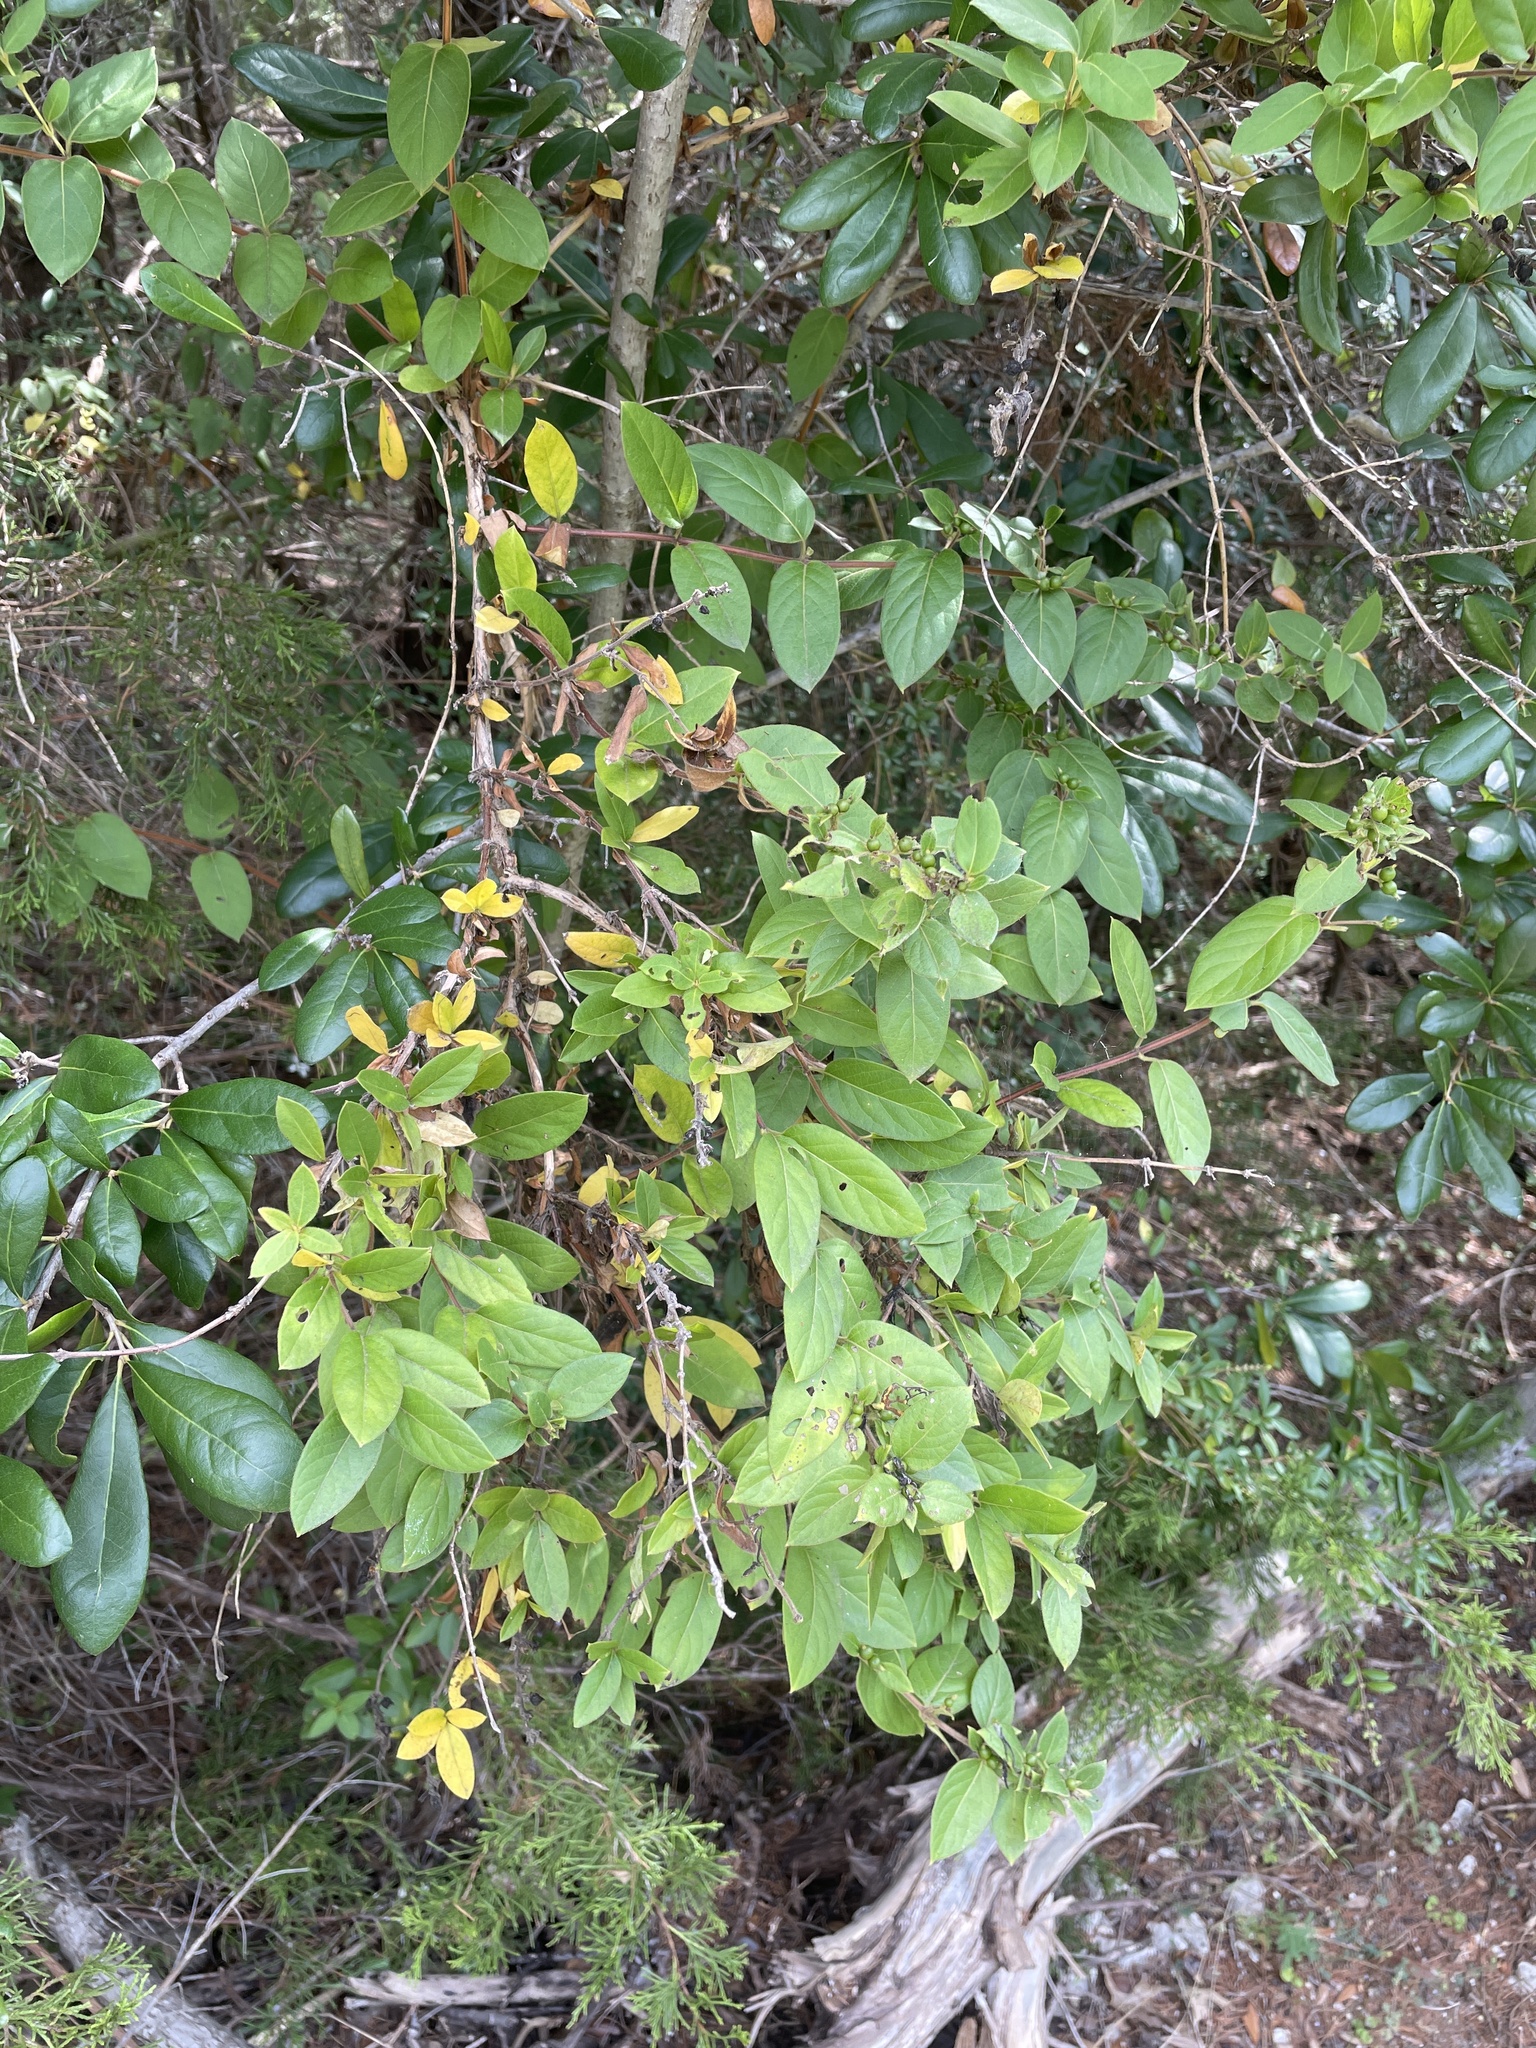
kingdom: Plantae
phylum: Tracheophyta
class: Magnoliopsida
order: Dipsacales
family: Caprifoliaceae
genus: Lonicera
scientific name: Lonicera japonica
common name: Japanese honeysuckle
